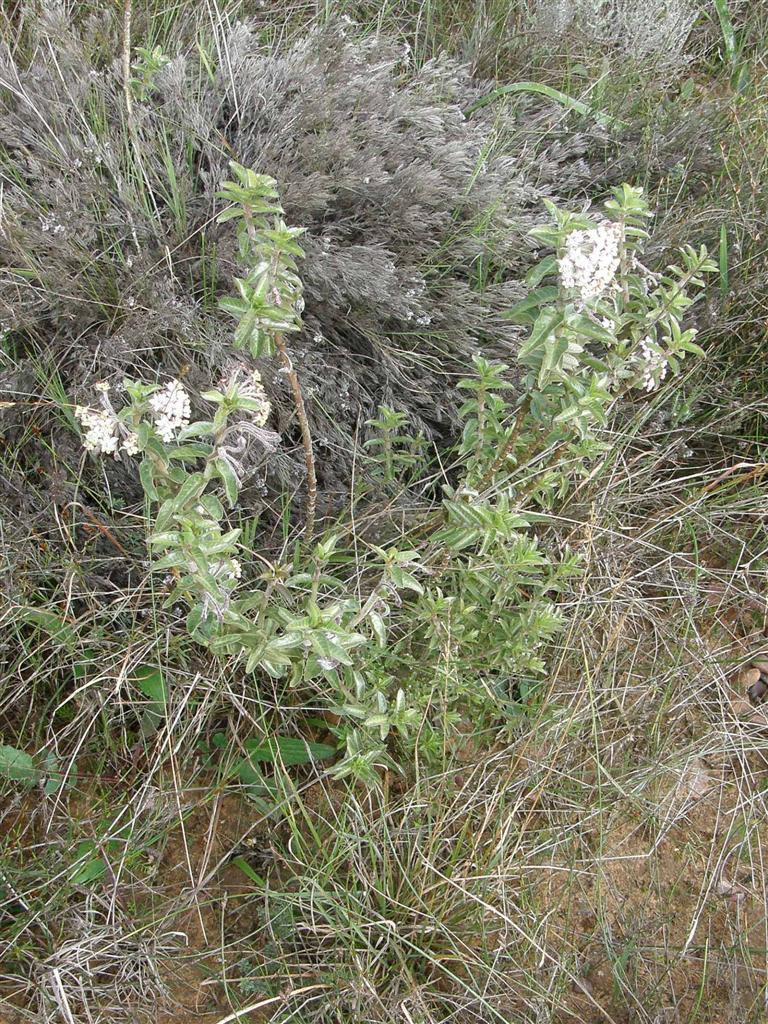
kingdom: Plantae
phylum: Tracheophyta
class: Magnoliopsida
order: Gentianales
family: Apocynaceae
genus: Gomphocarpus
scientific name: Gomphocarpus cancellatus
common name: Wild cotton
